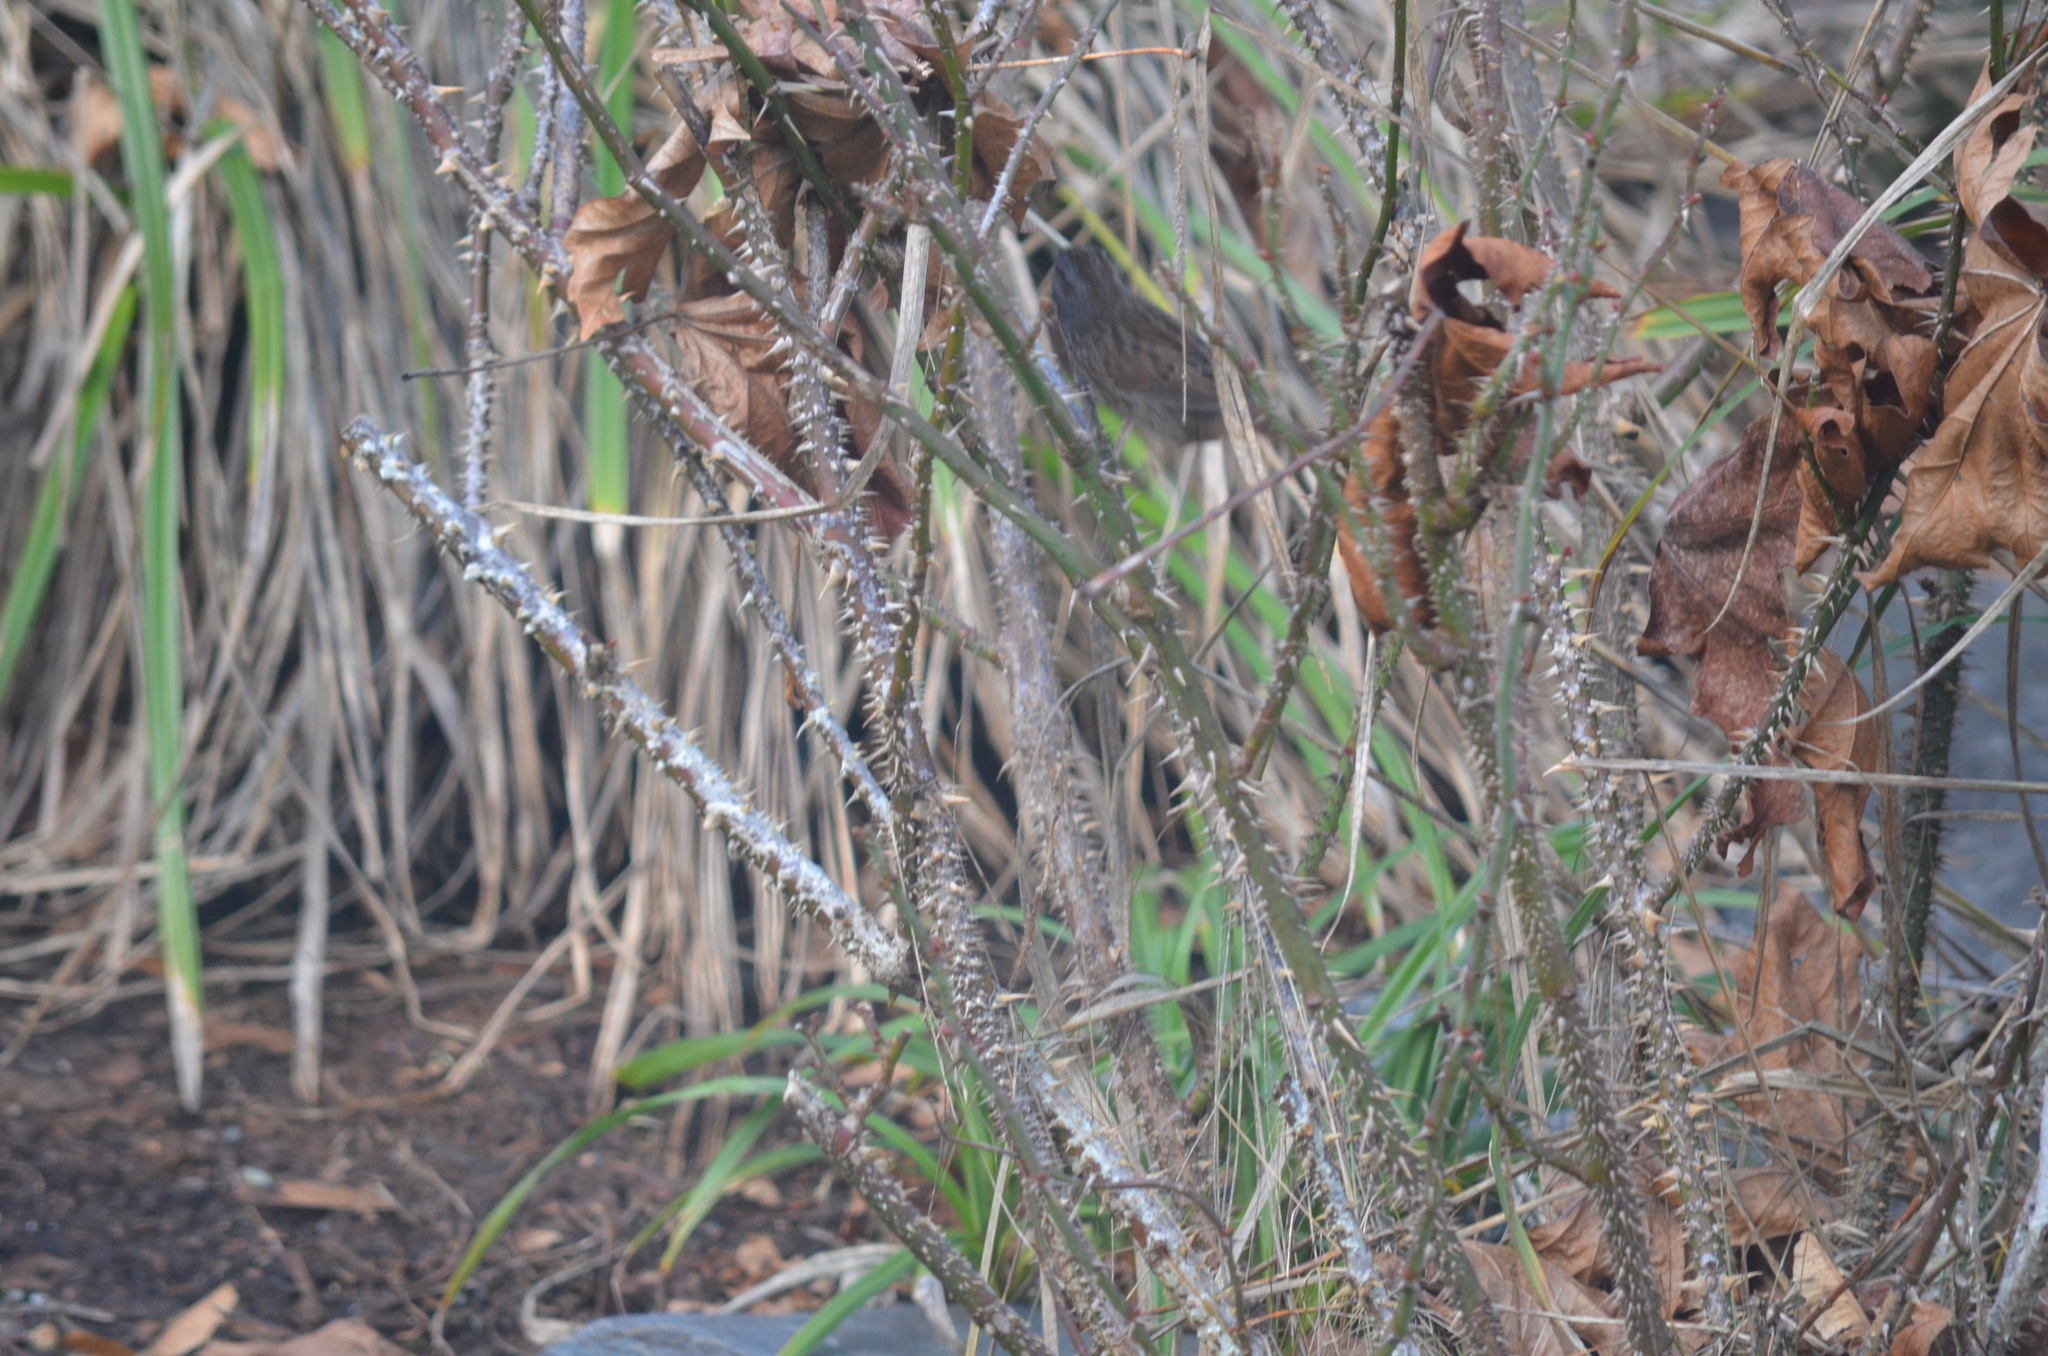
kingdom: Animalia
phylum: Chordata
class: Aves
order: Passeriformes
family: Passerellidae
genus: Melospiza
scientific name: Melospiza melodia
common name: Song sparrow
